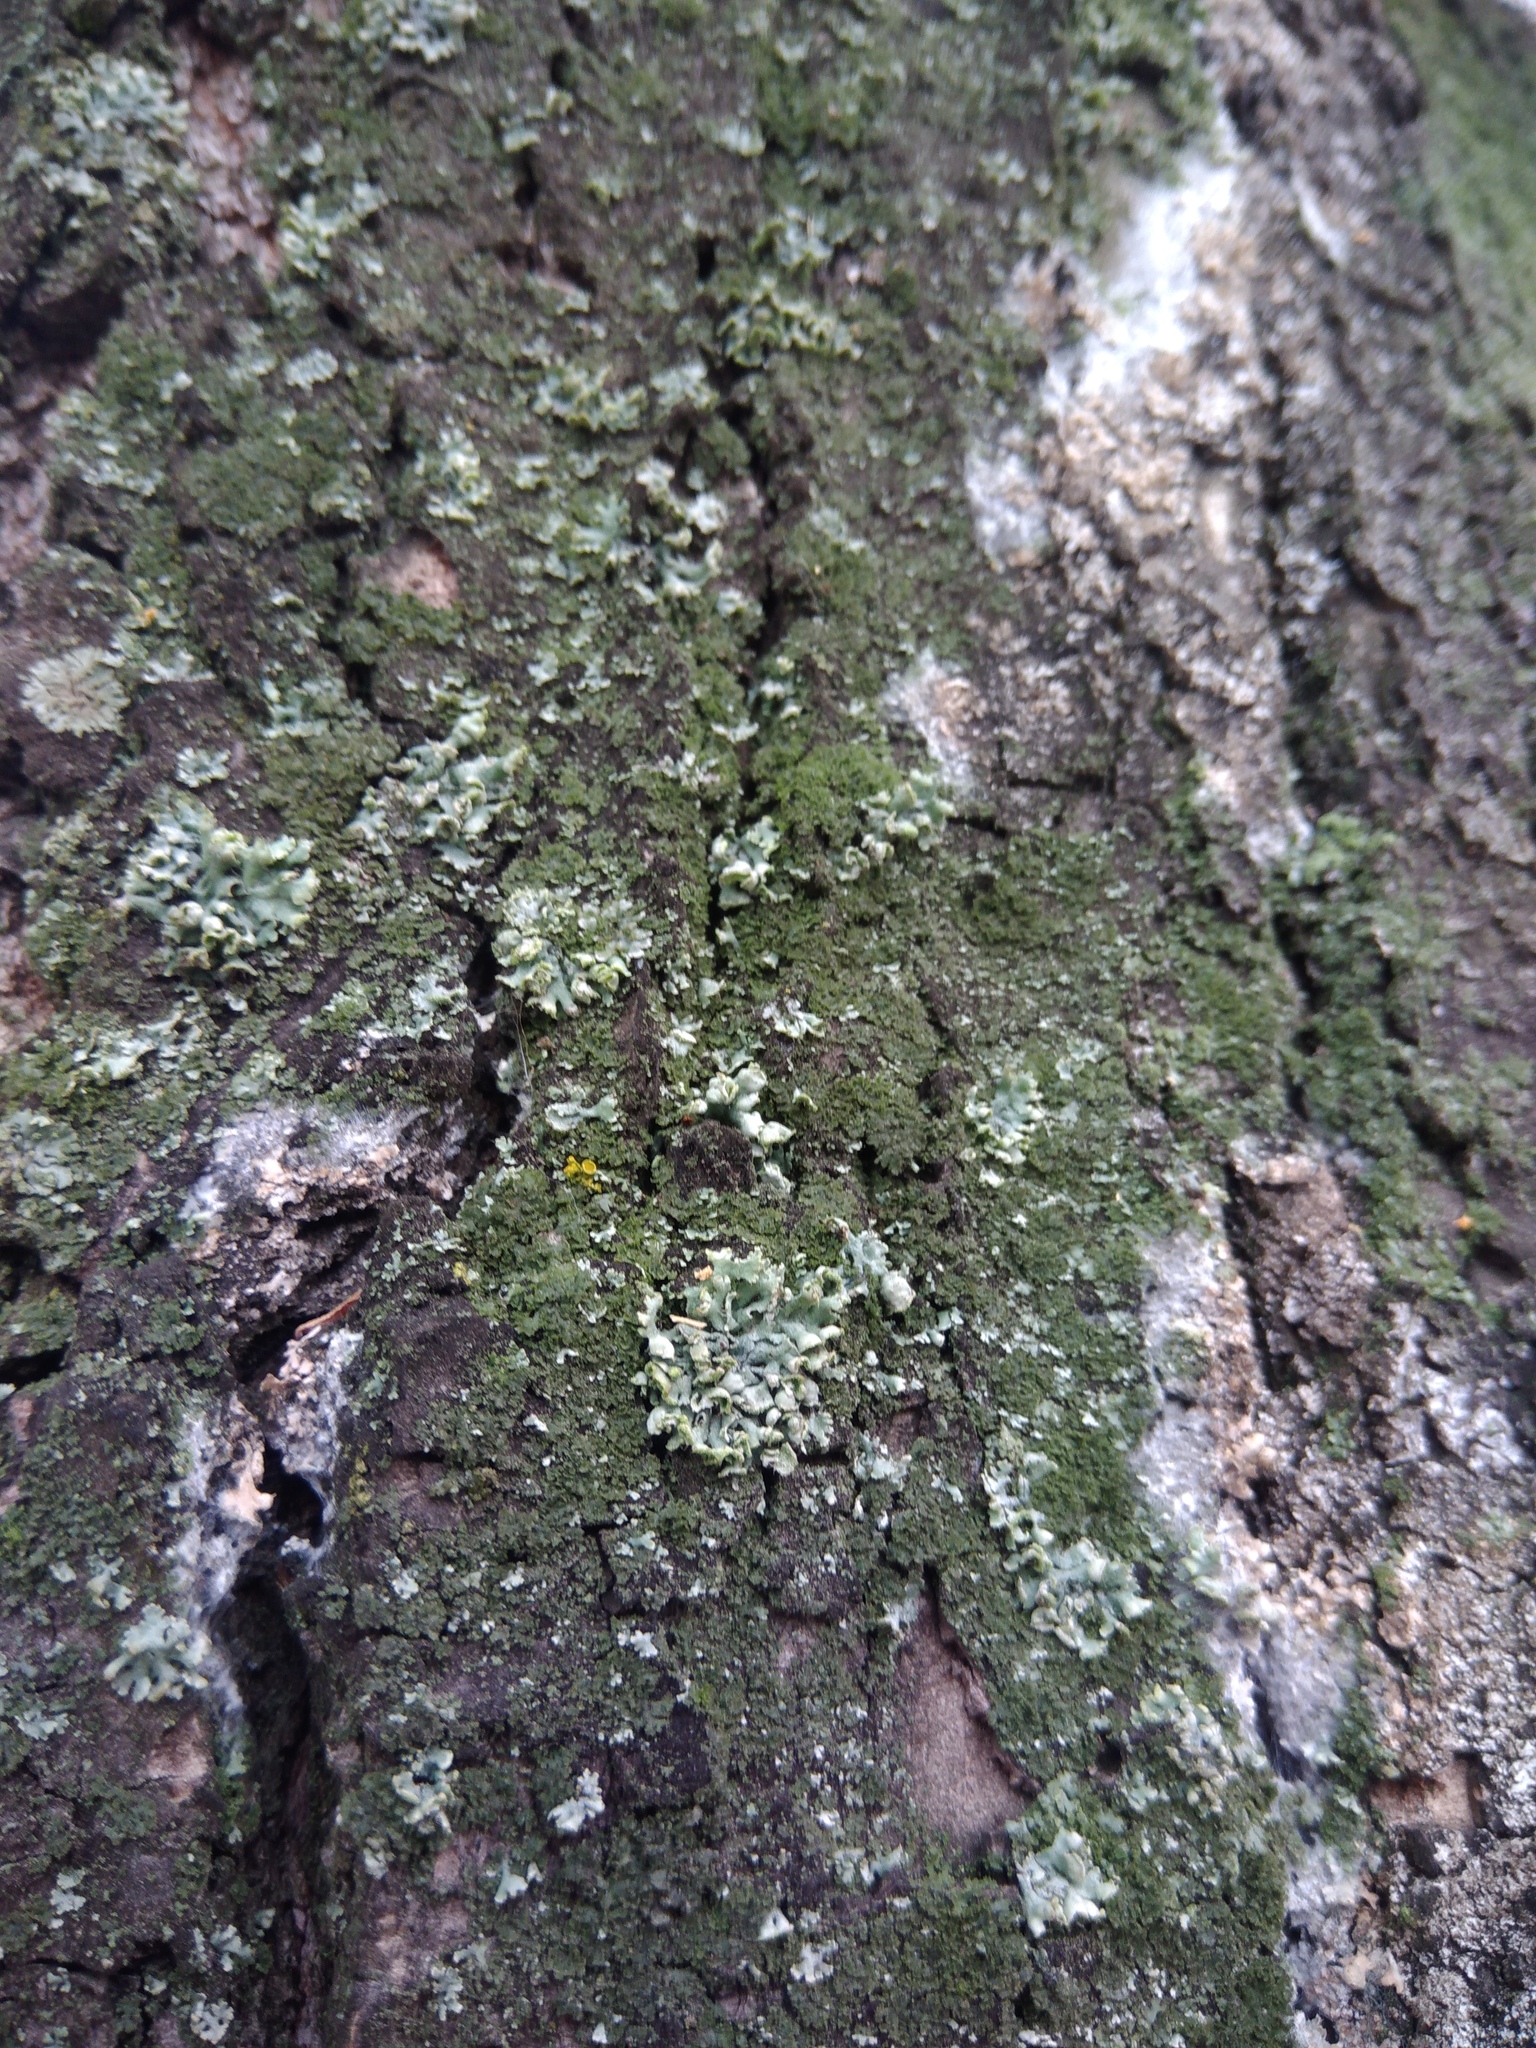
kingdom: Fungi
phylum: Ascomycota
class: Lecanoromycetes
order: Caliciales
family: Physciaceae
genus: Physcia
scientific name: Physcia adscendens
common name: Hooded rosette lichen
